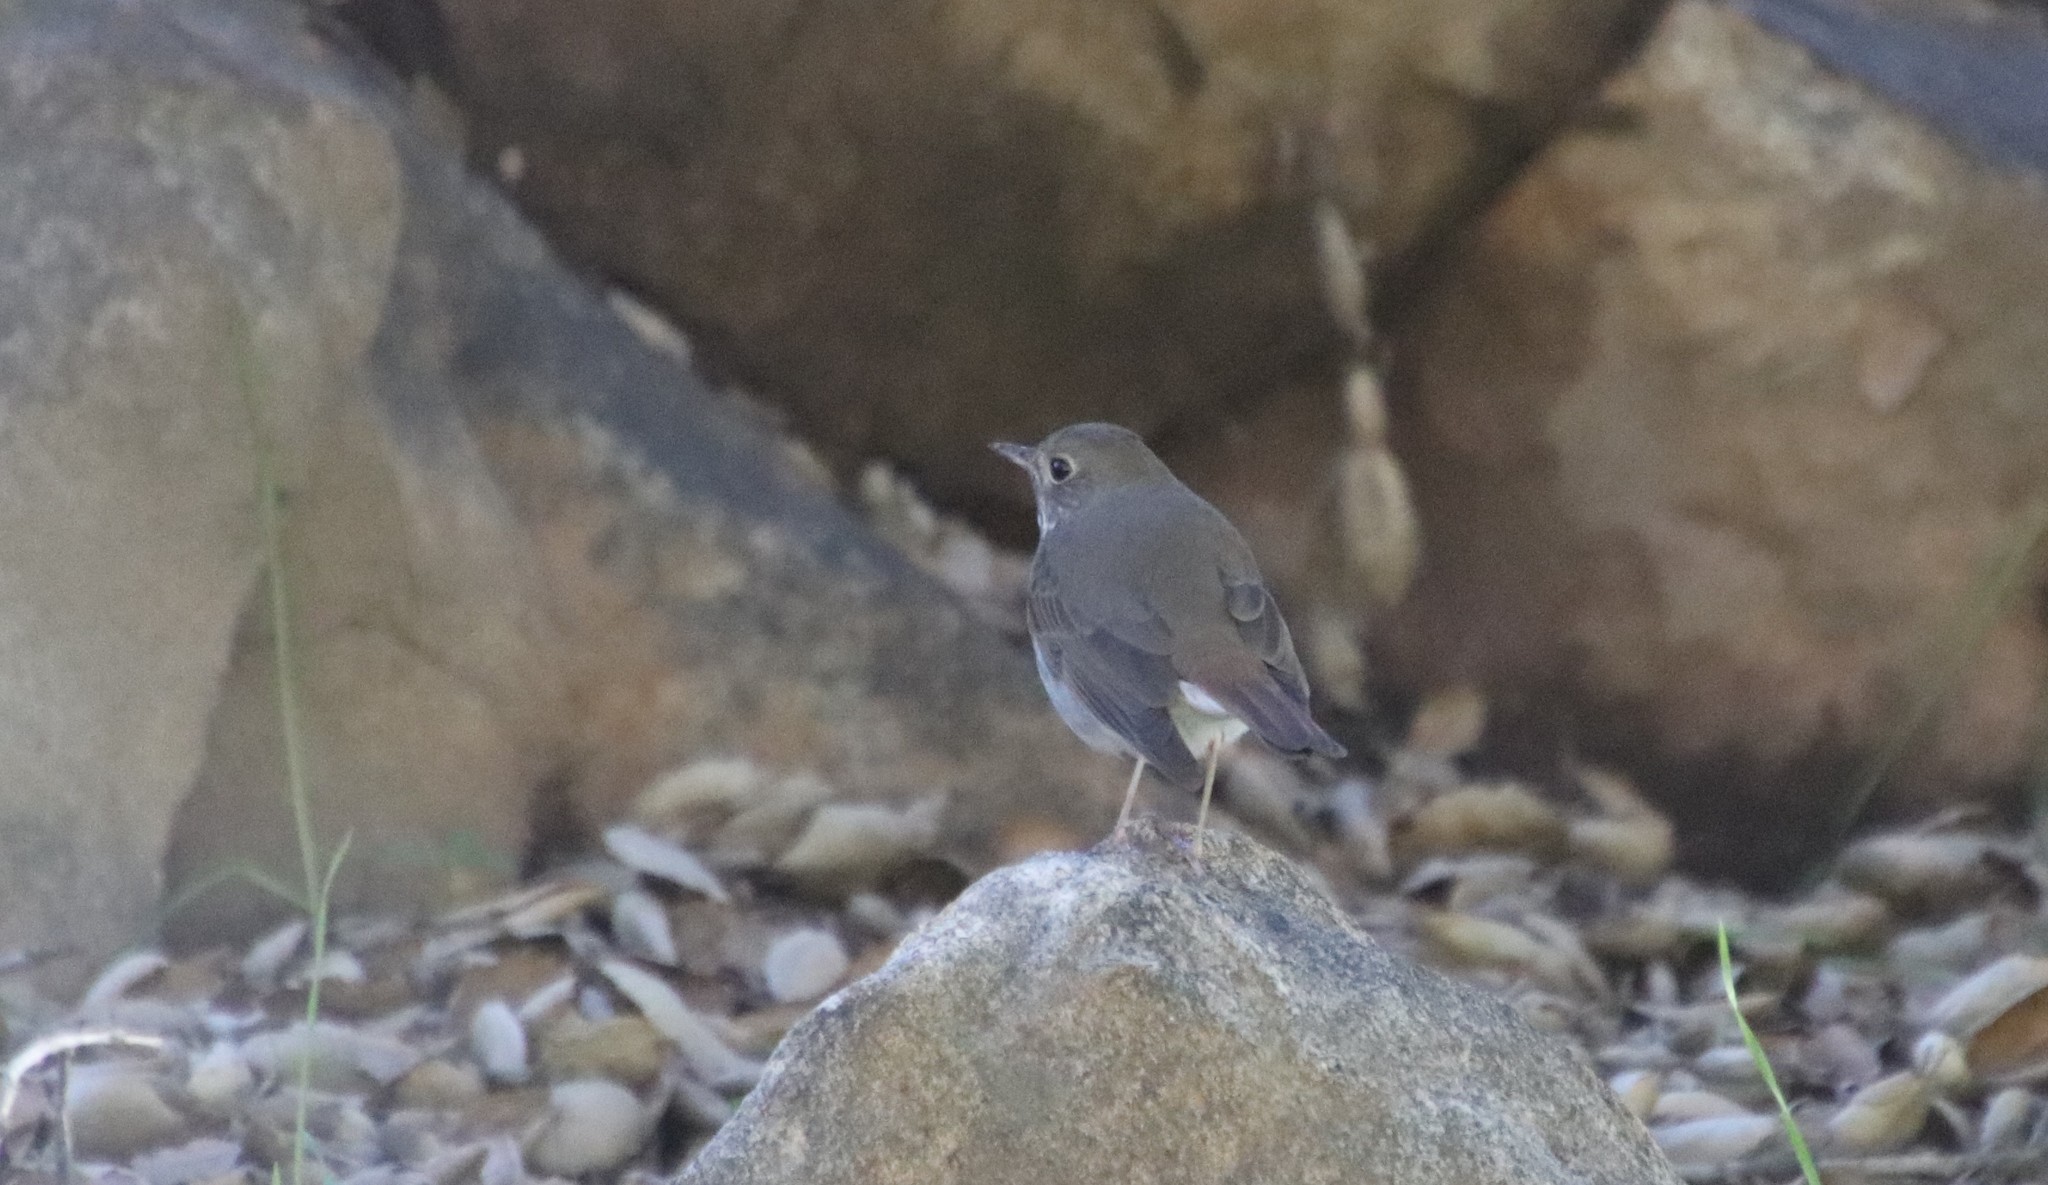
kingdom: Animalia
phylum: Chordata
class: Aves
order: Passeriformes
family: Turdidae
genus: Catharus
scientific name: Catharus guttatus
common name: Hermit thrush
